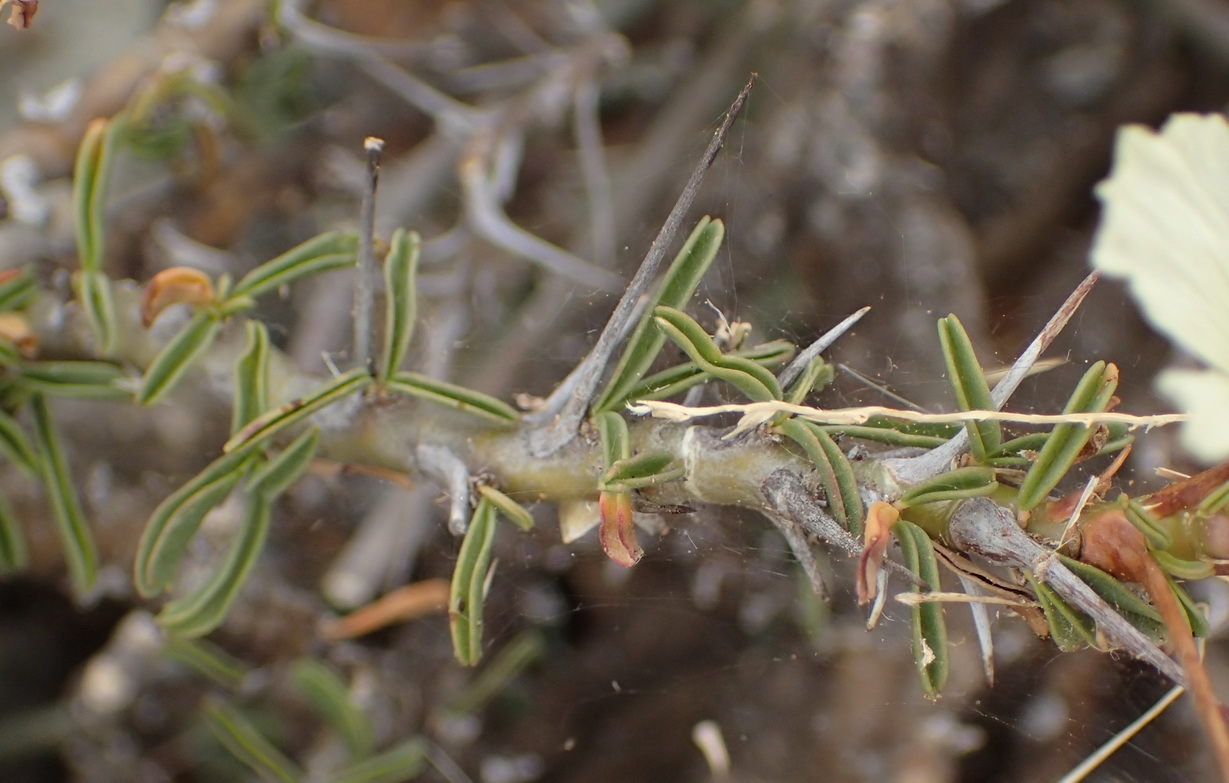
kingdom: Plantae
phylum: Tracheophyta
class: Magnoliopsida
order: Geraniales
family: Geraniaceae
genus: Monsonia
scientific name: Monsonia camdeboensis
